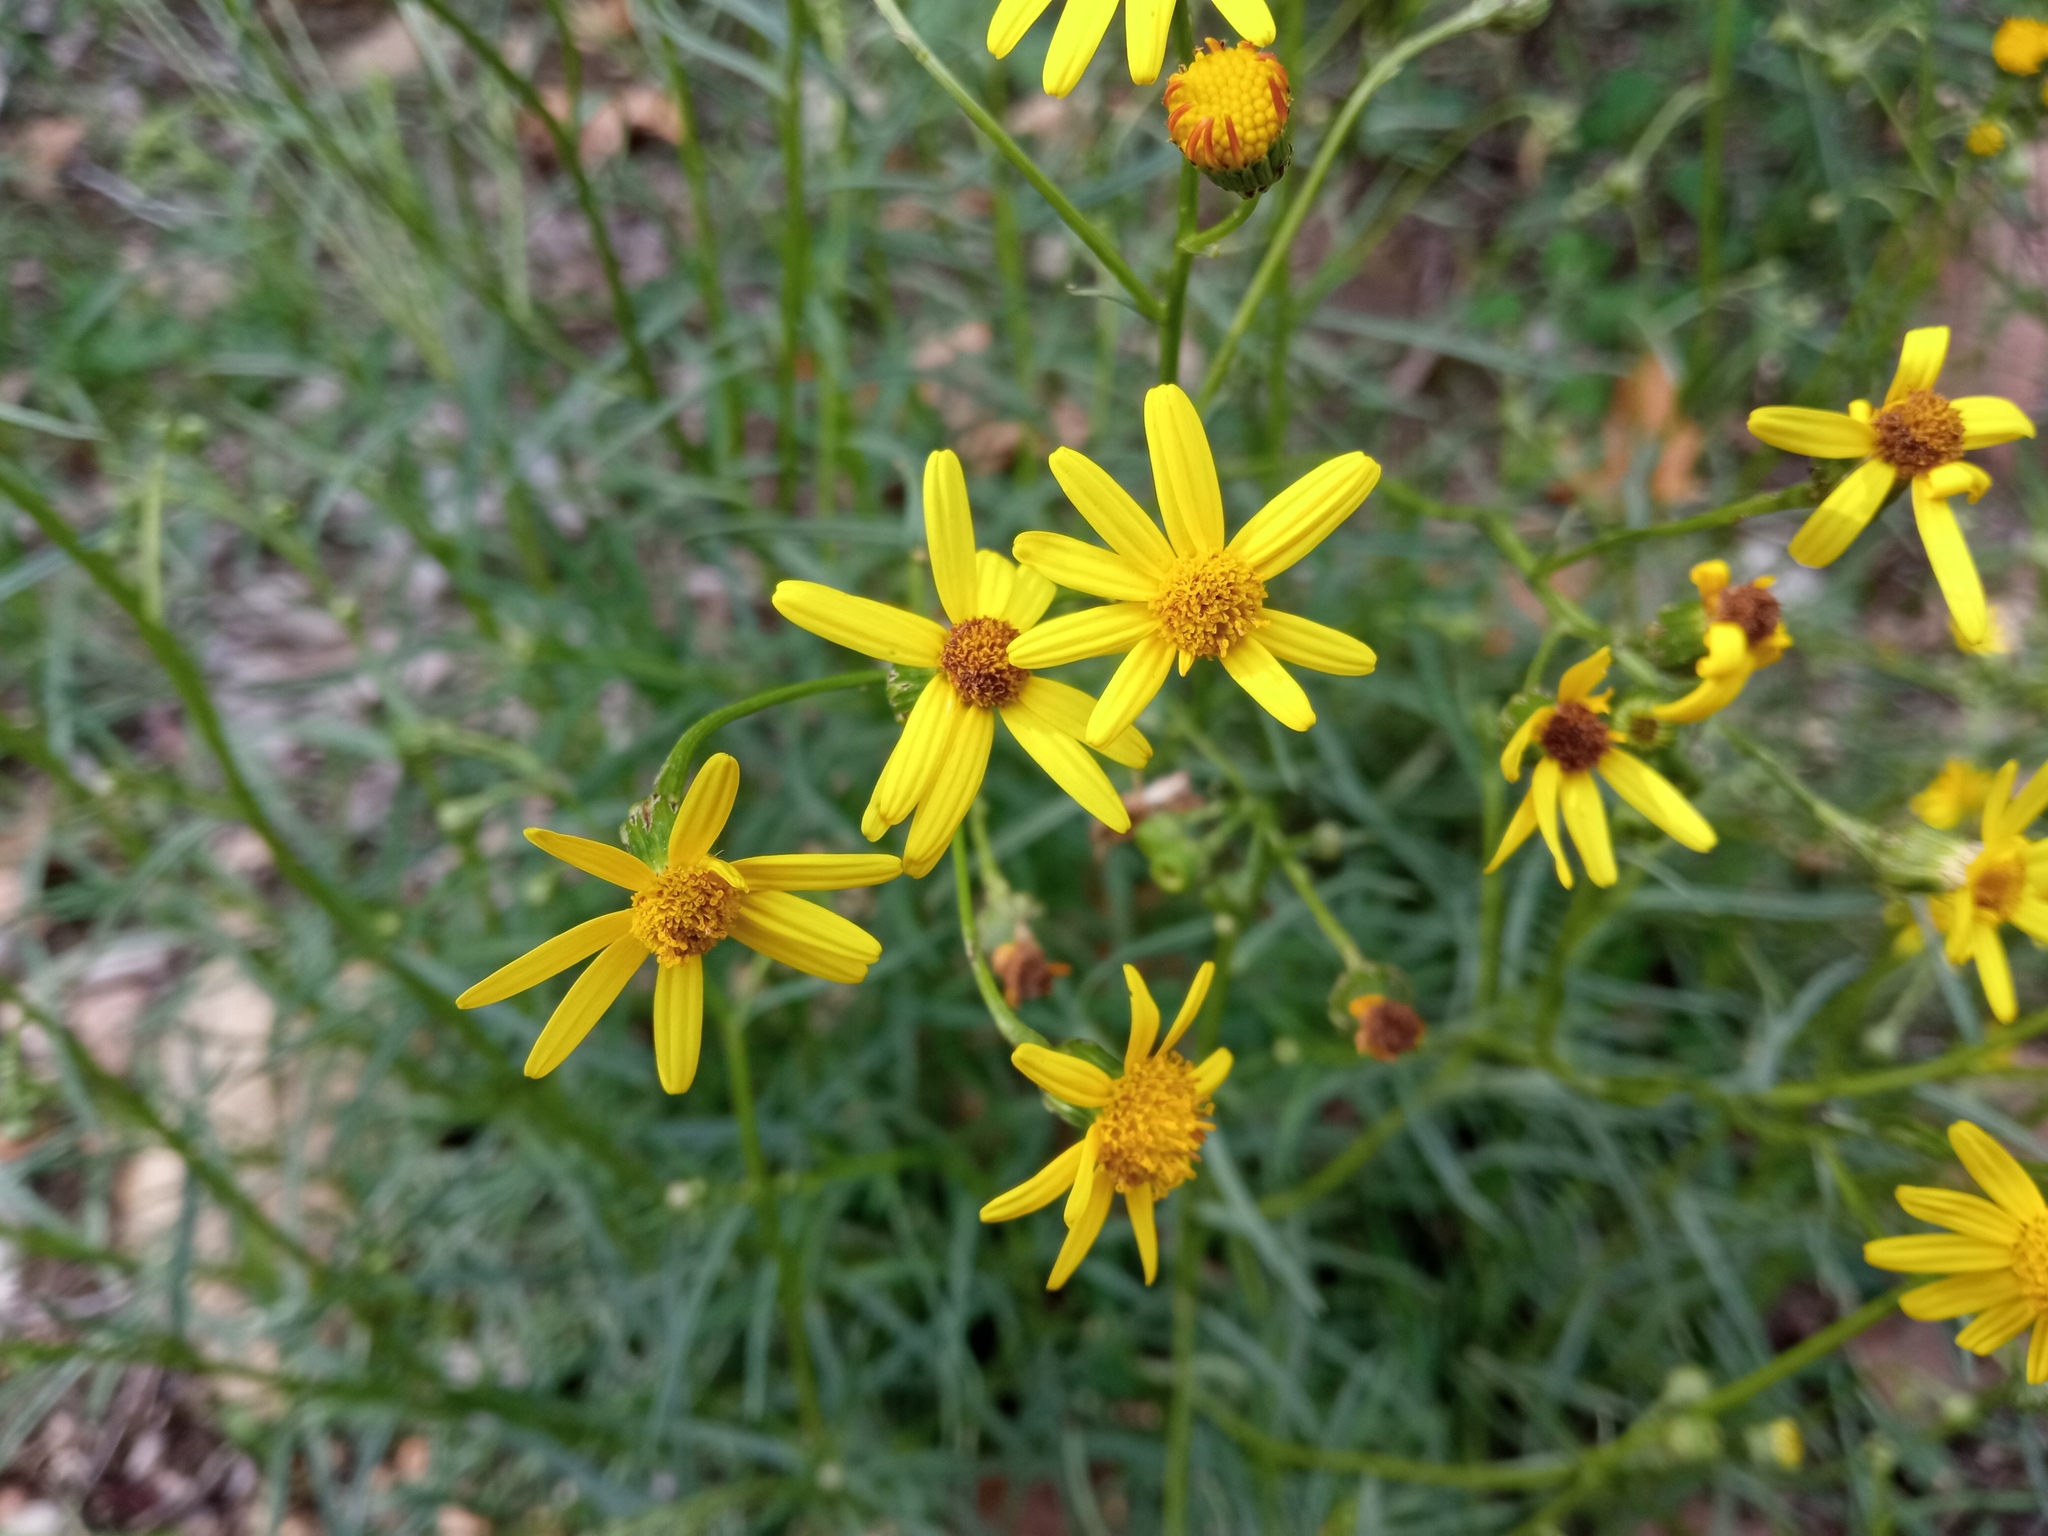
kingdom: Plantae
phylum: Tracheophyta
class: Magnoliopsida
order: Asterales
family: Asteraceae
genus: Senecio
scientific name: Senecio inaequidens
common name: Narrow-leaved ragwort
